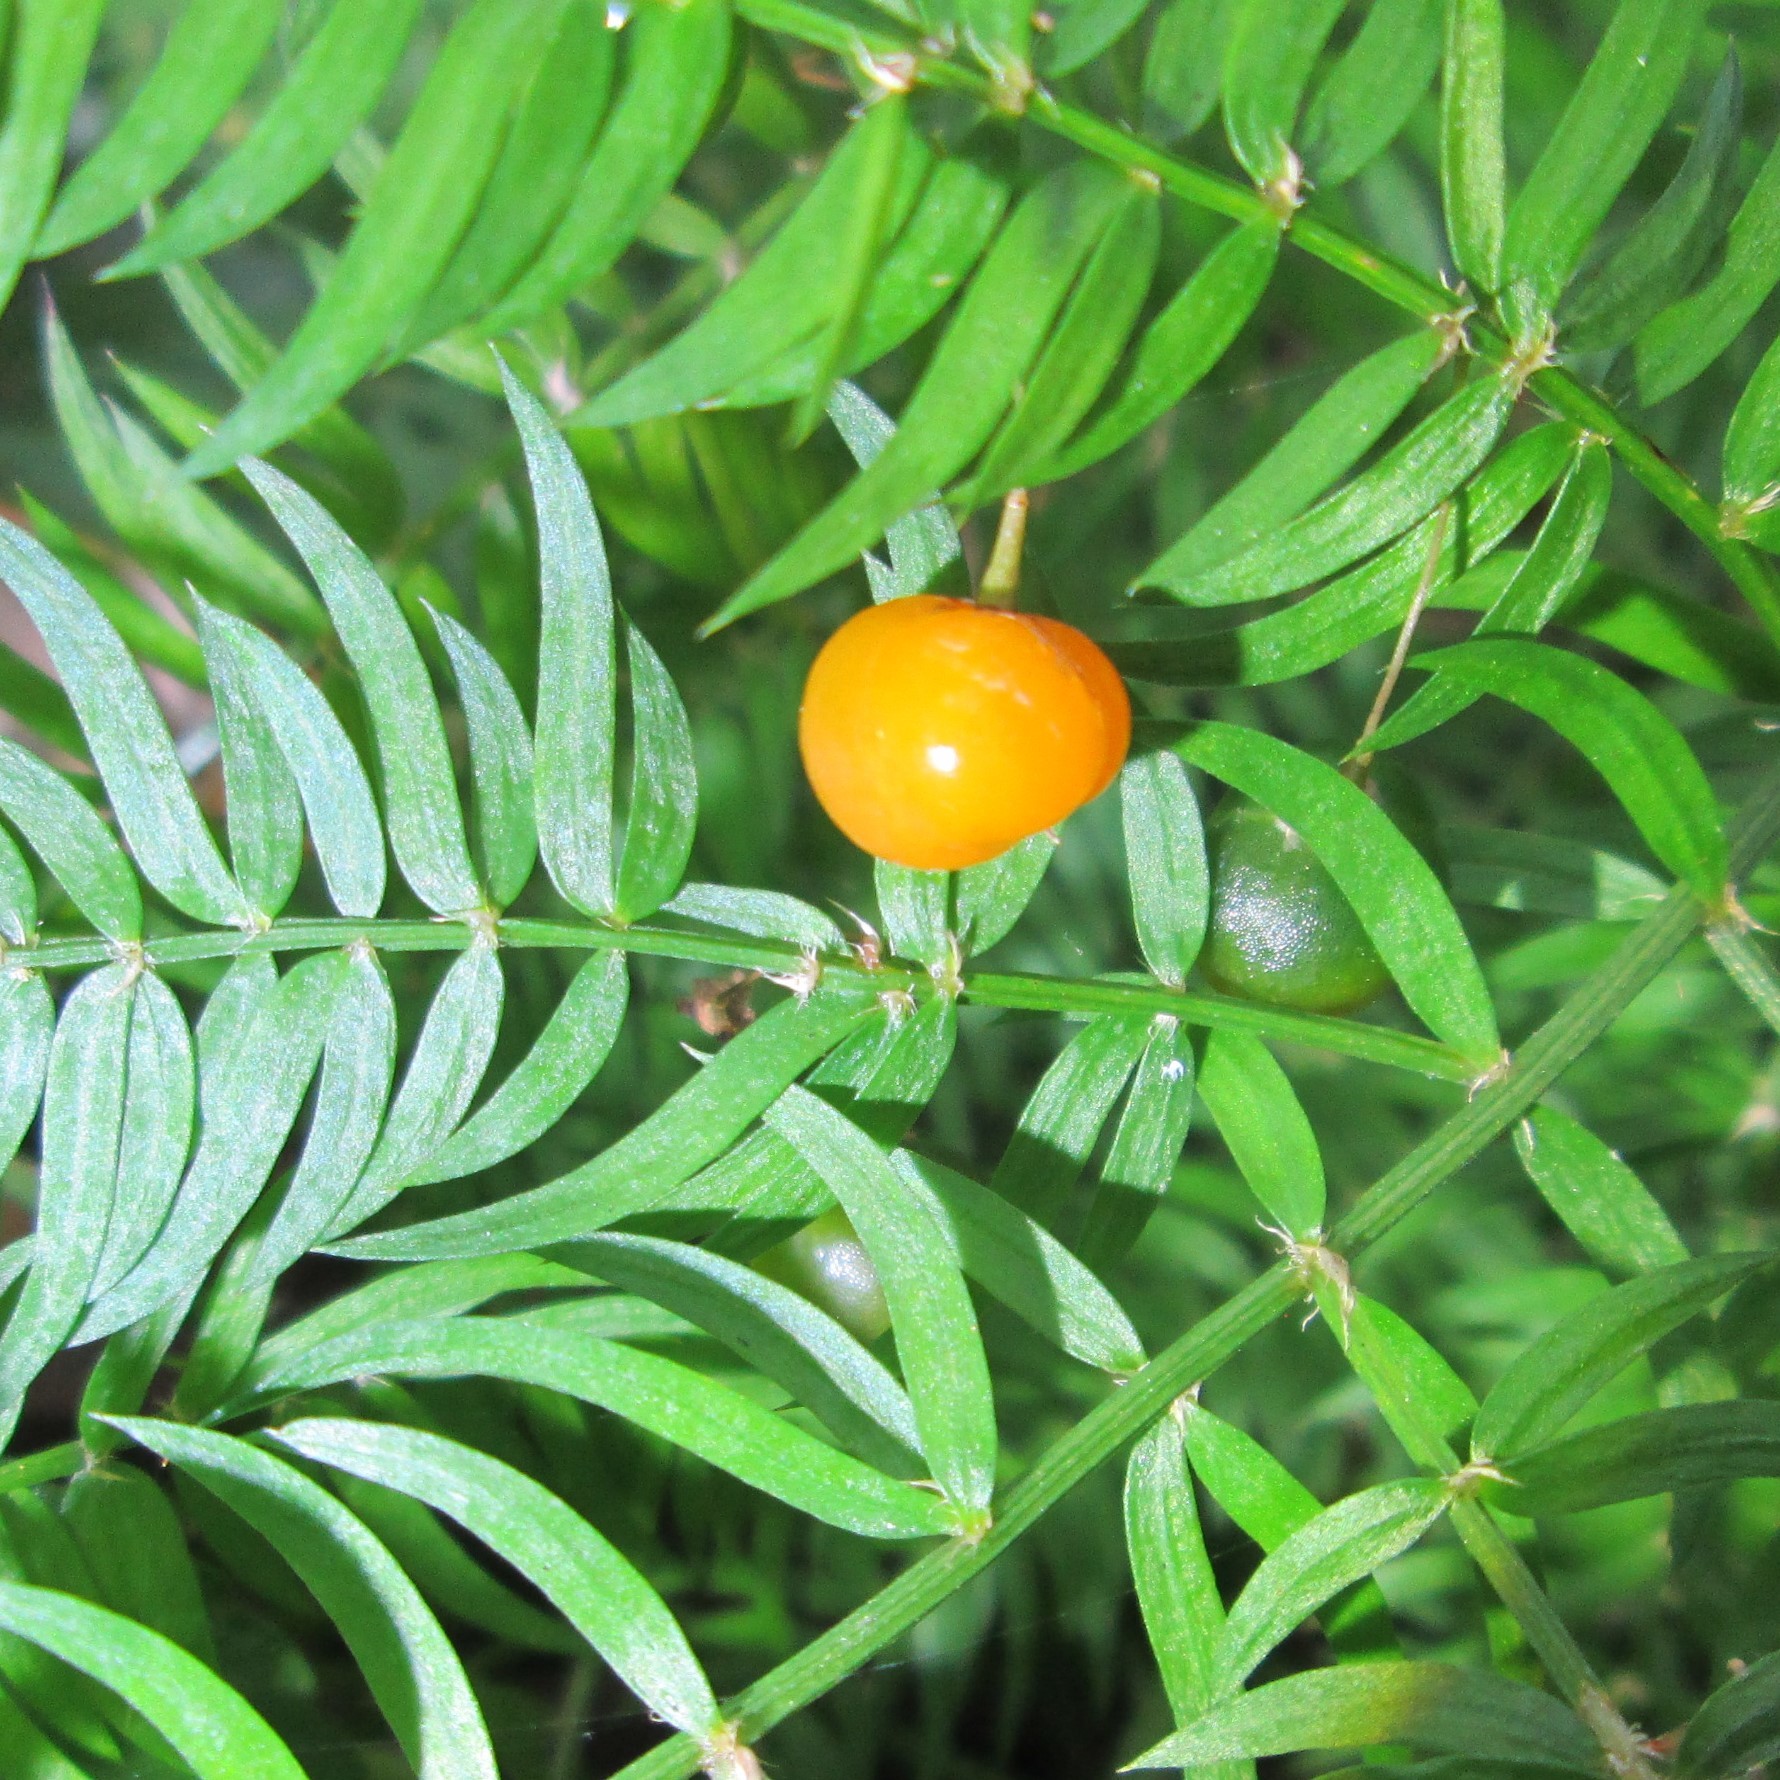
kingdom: Plantae
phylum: Tracheophyta
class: Liliopsida
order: Asparagales
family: Asparagaceae
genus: Asparagus
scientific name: Asparagus scandens
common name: Asparagus-fern
